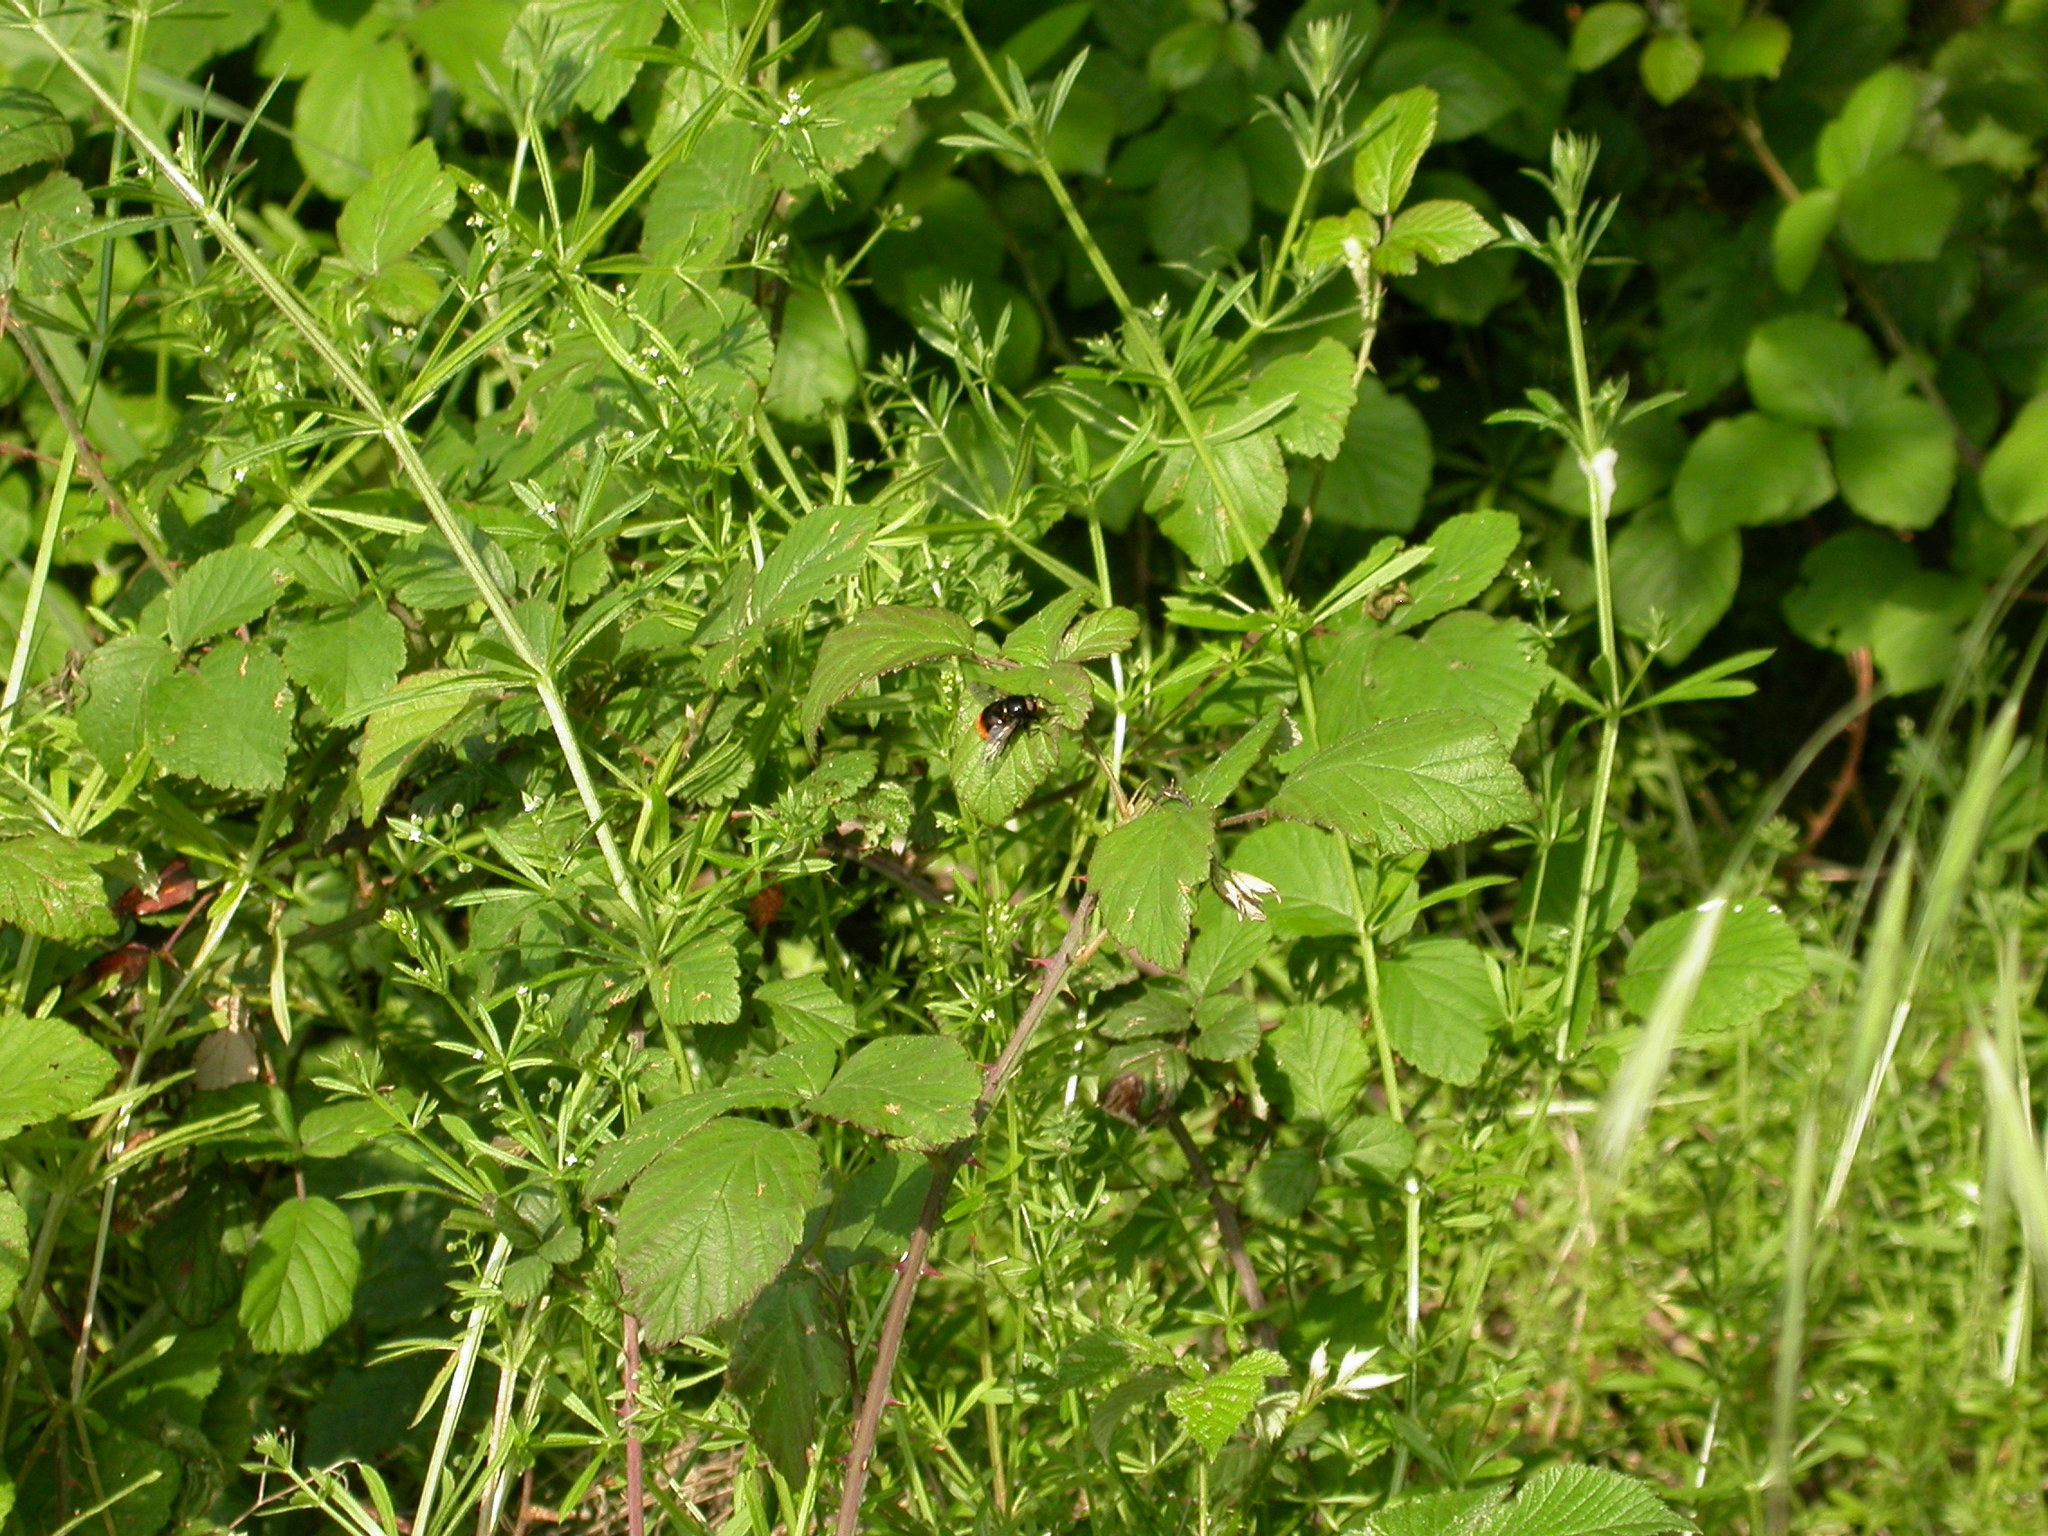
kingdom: Animalia
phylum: Arthropoda
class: Insecta
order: Diptera
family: Syrphidae
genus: Volucella
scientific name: Volucella bombylans
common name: Bumble bee hover fly
